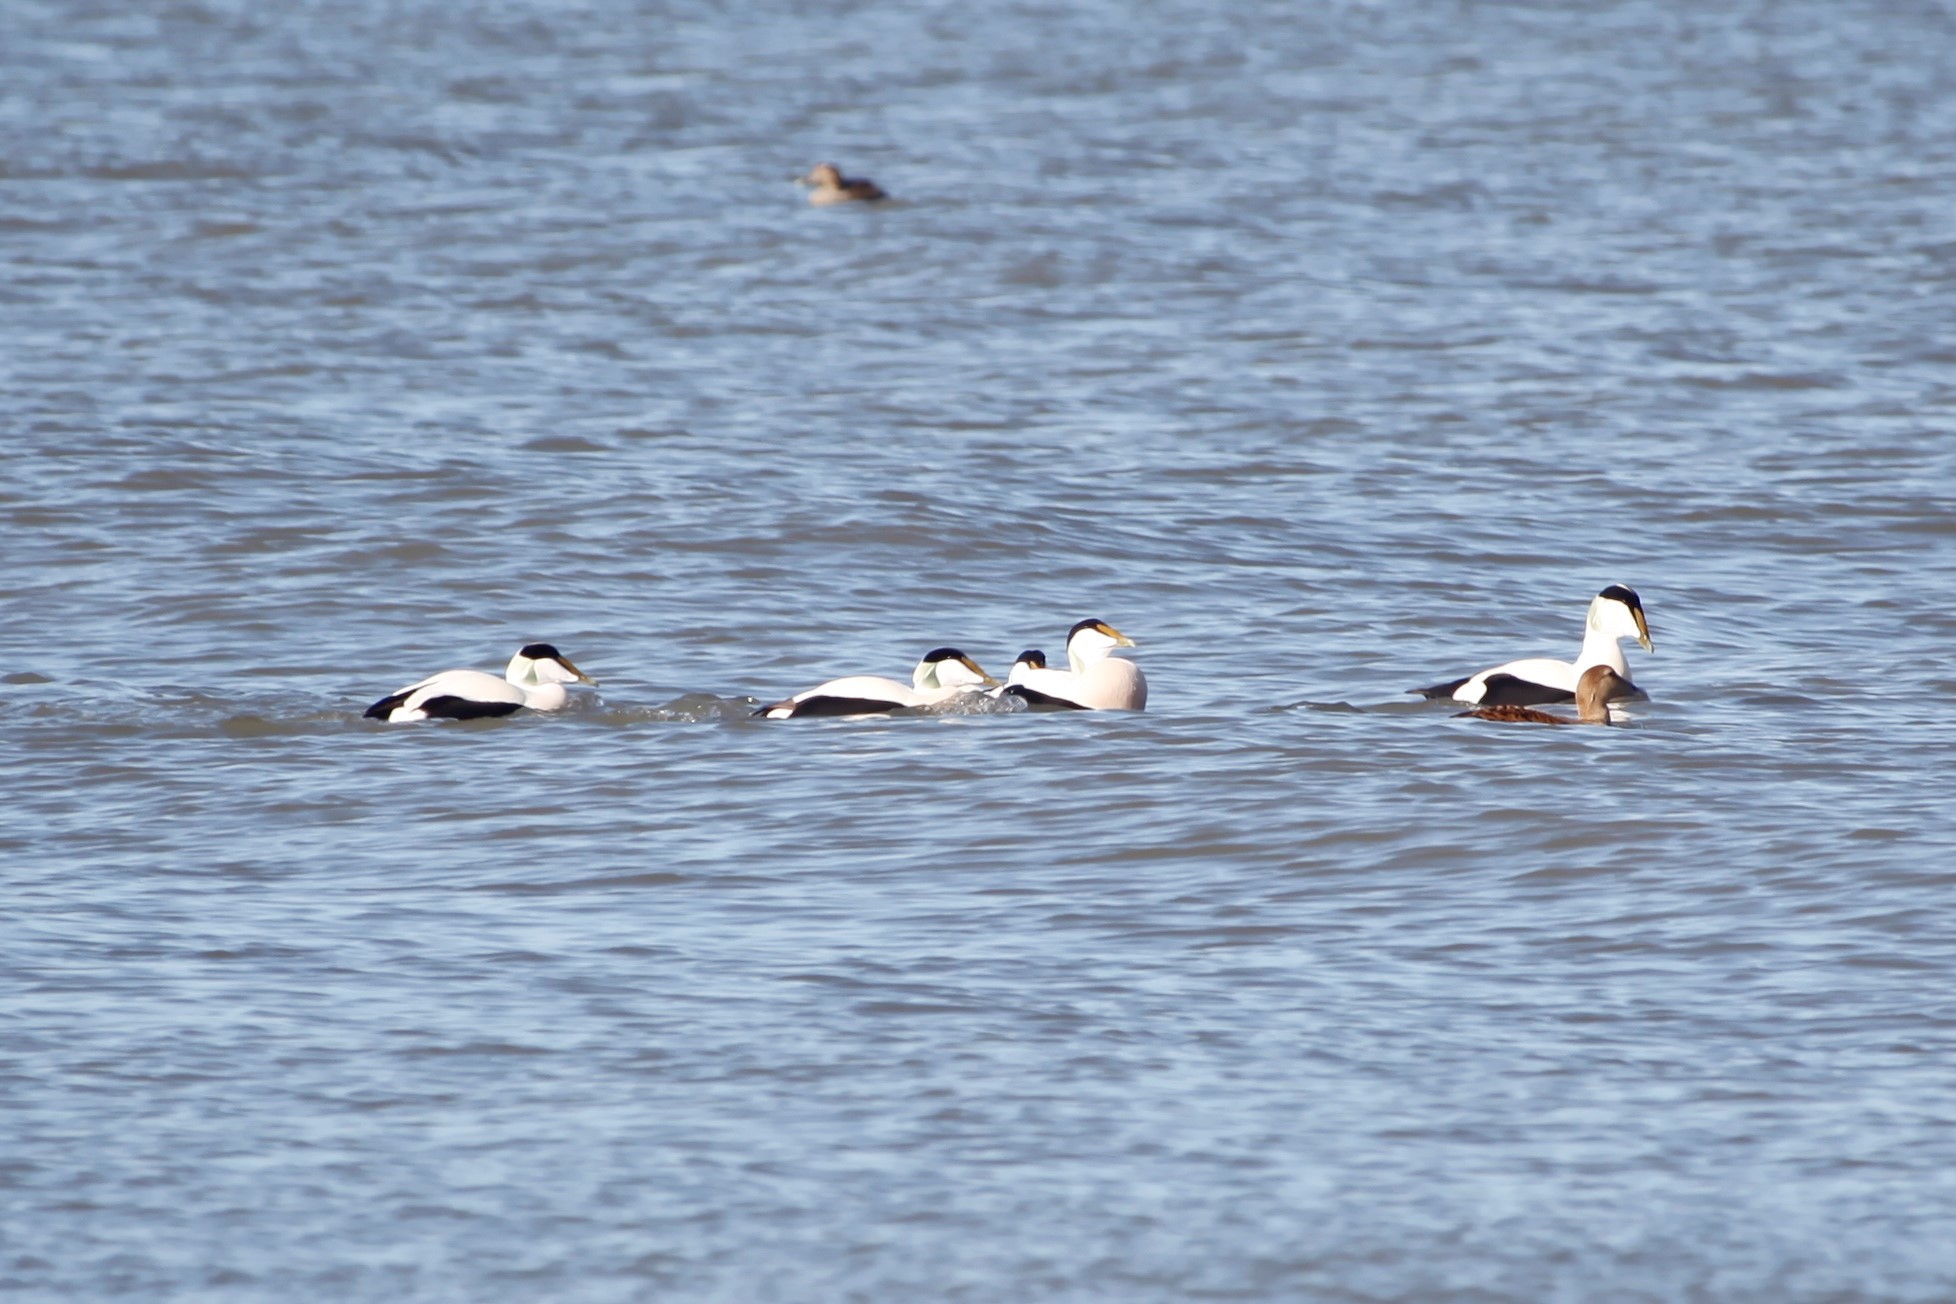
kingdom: Animalia
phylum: Chordata
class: Aves
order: Anseriformes
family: Anatidae
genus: Somateria
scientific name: Somateria mollissima
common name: Common eider
